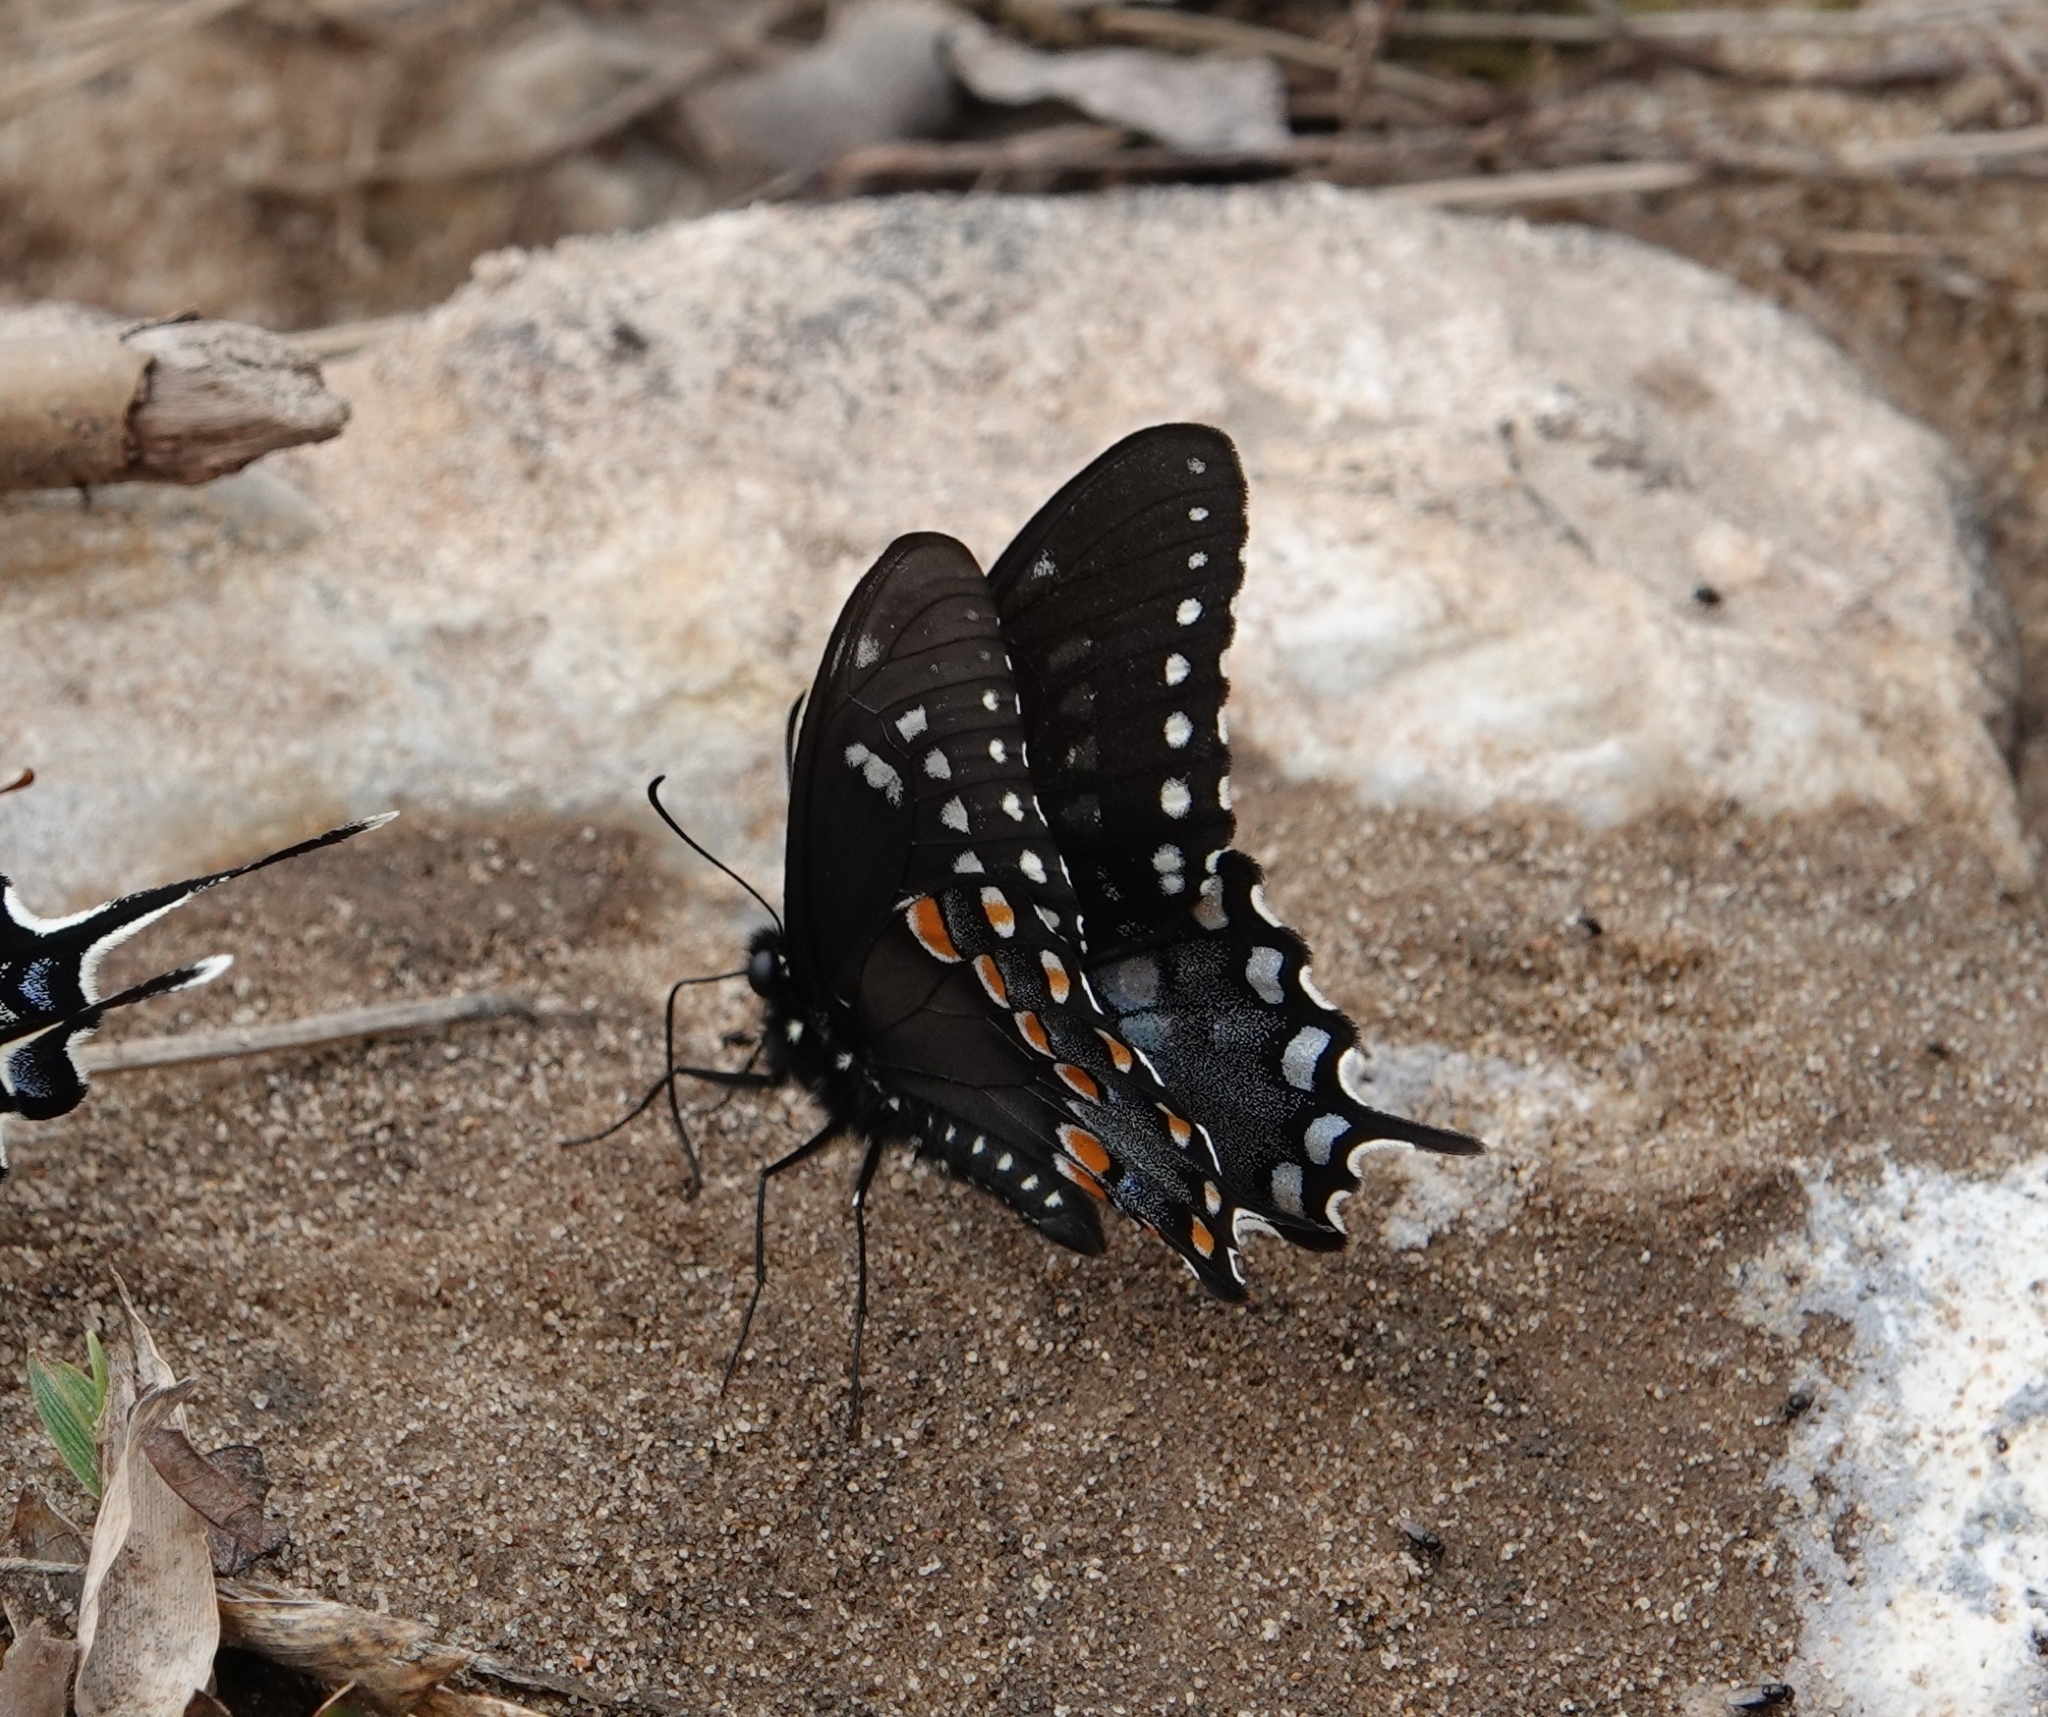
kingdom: Animalia
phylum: Arthropoda
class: Insecta
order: Lepidoptera
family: Papilionidae
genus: Papilio
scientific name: Papilio troilus
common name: Spicebush swallowtail
